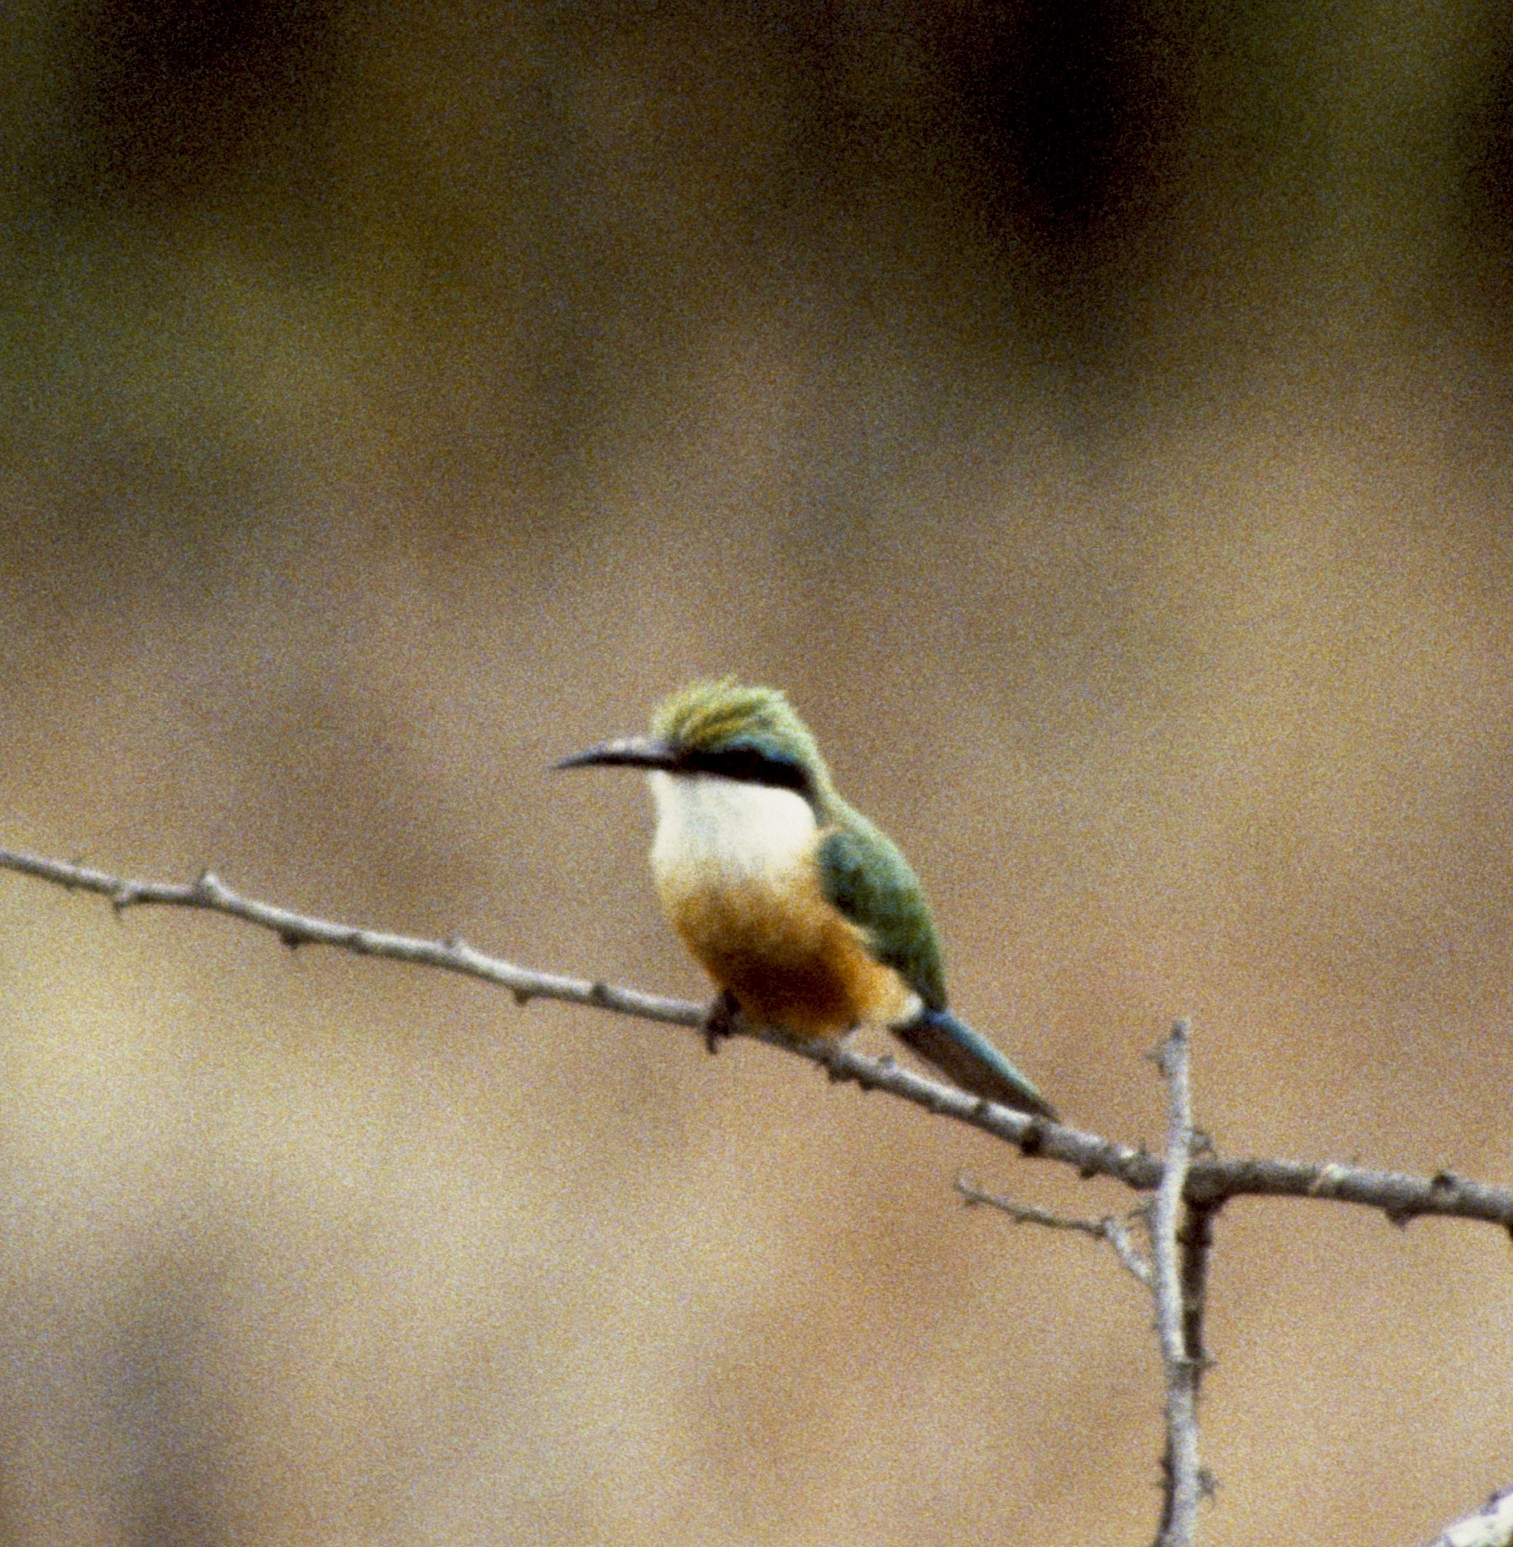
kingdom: Animalia
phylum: Chordata
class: Aves
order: Coraciiformes
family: Meropidae
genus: Merops
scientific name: Merops revoilii
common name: Somali bee-eater
